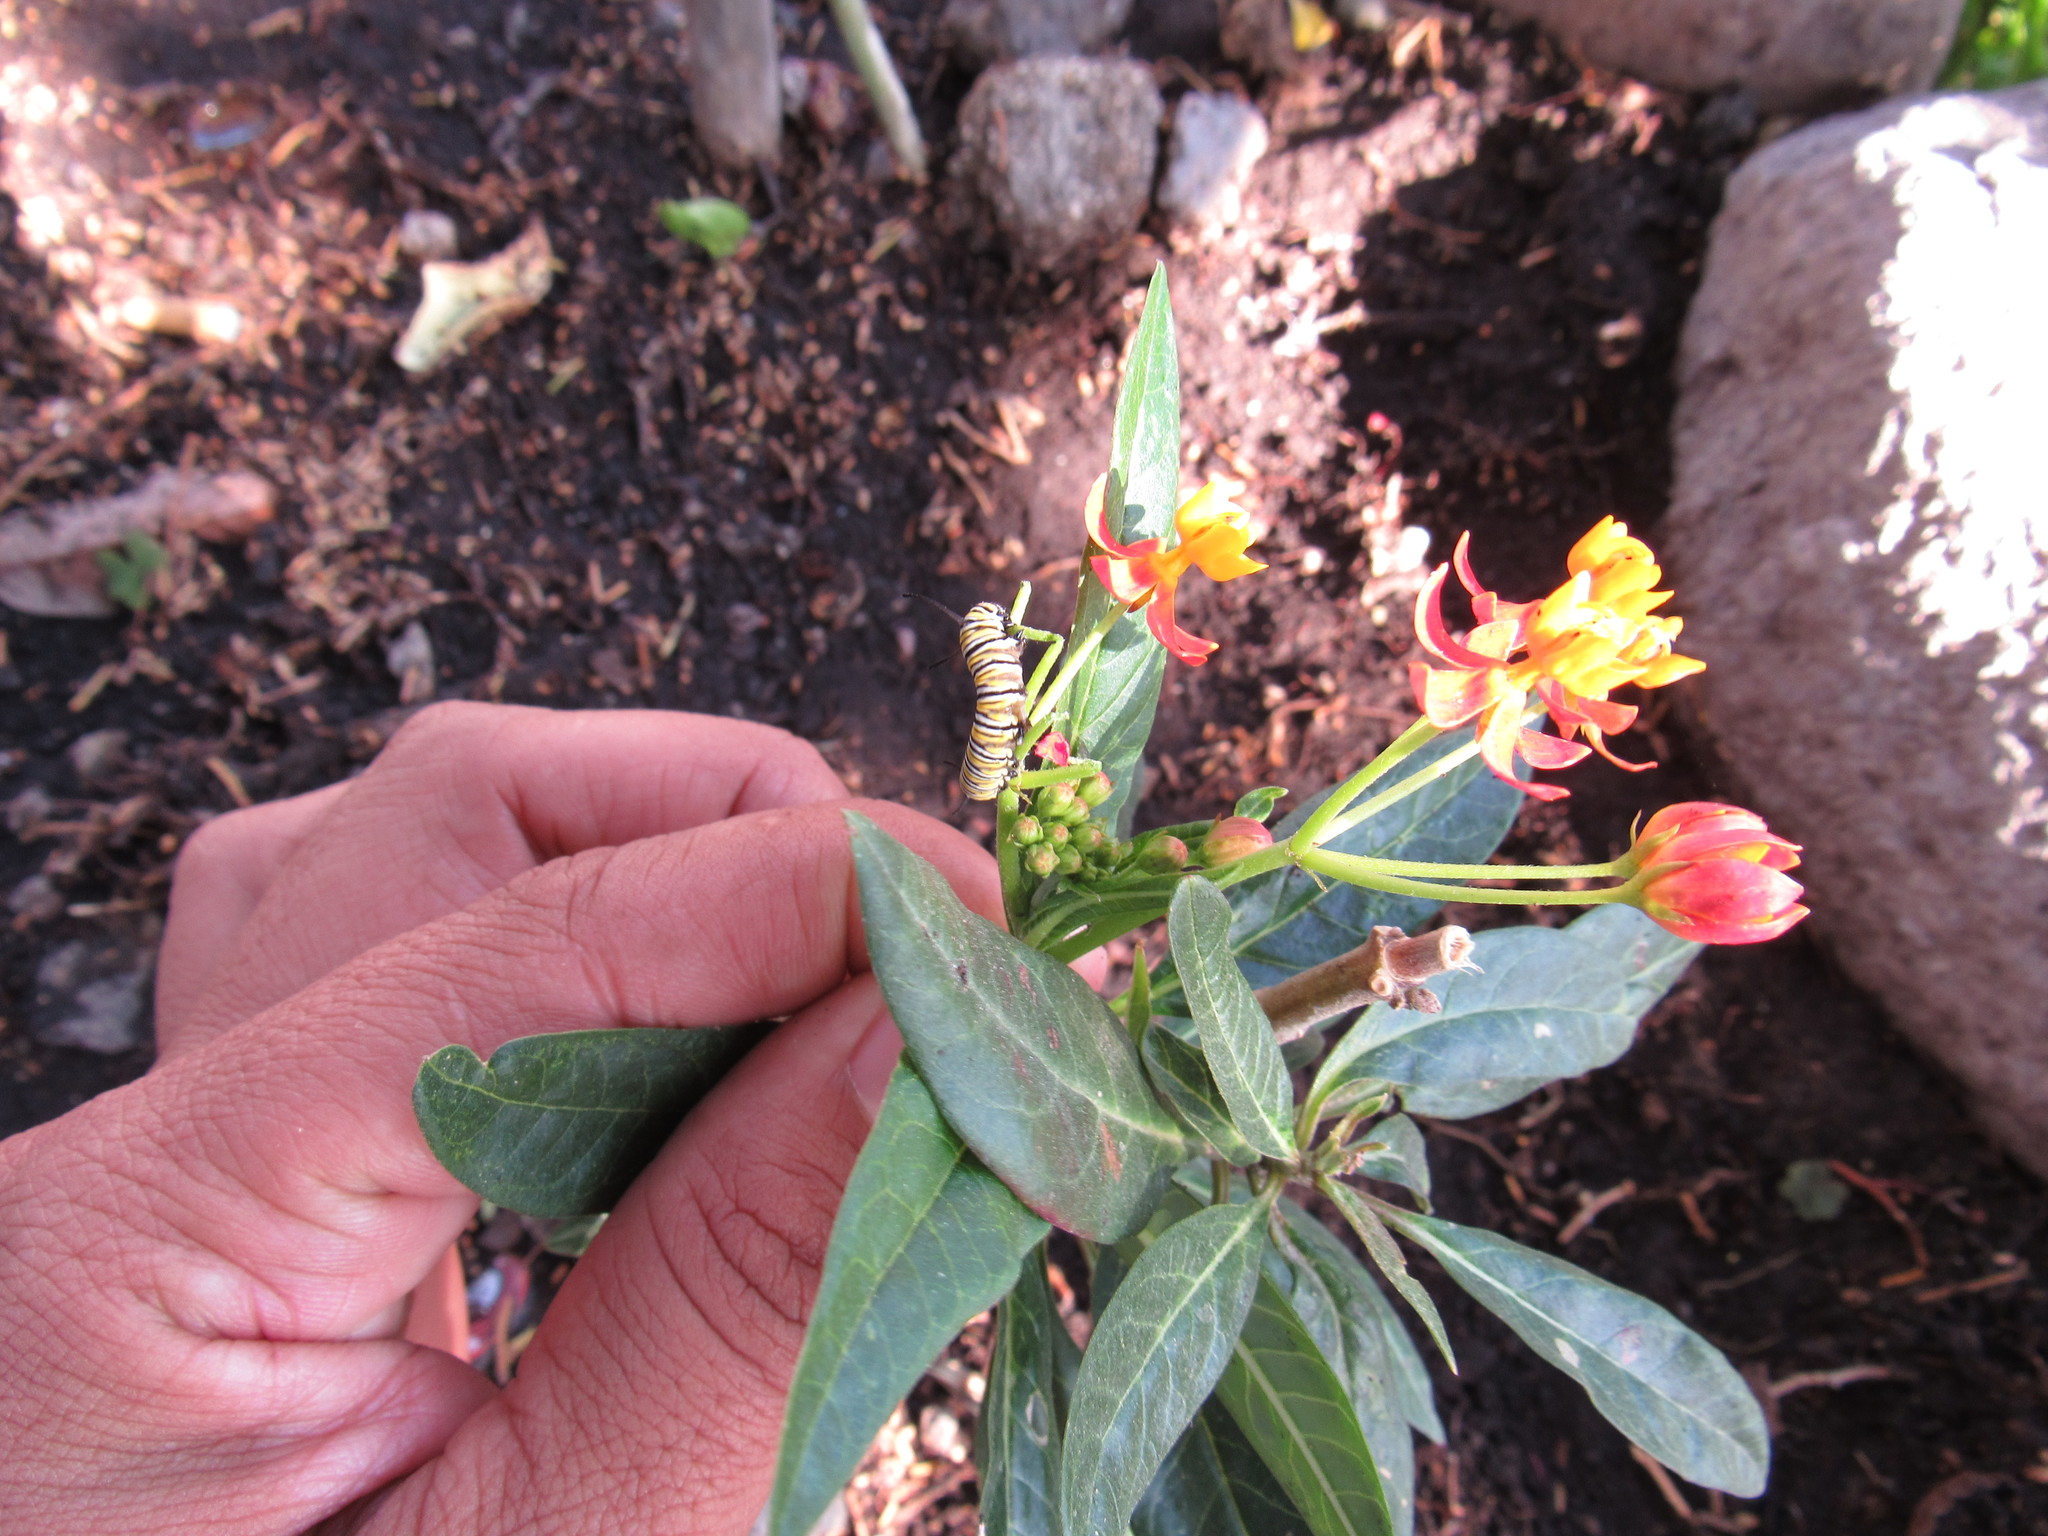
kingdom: Plantae
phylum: Tracheophyta
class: Magnoliopsida
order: Gentianales
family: Apocynaceae
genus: Asclepias
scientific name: Asclepias curassavica
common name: Bloodflower
